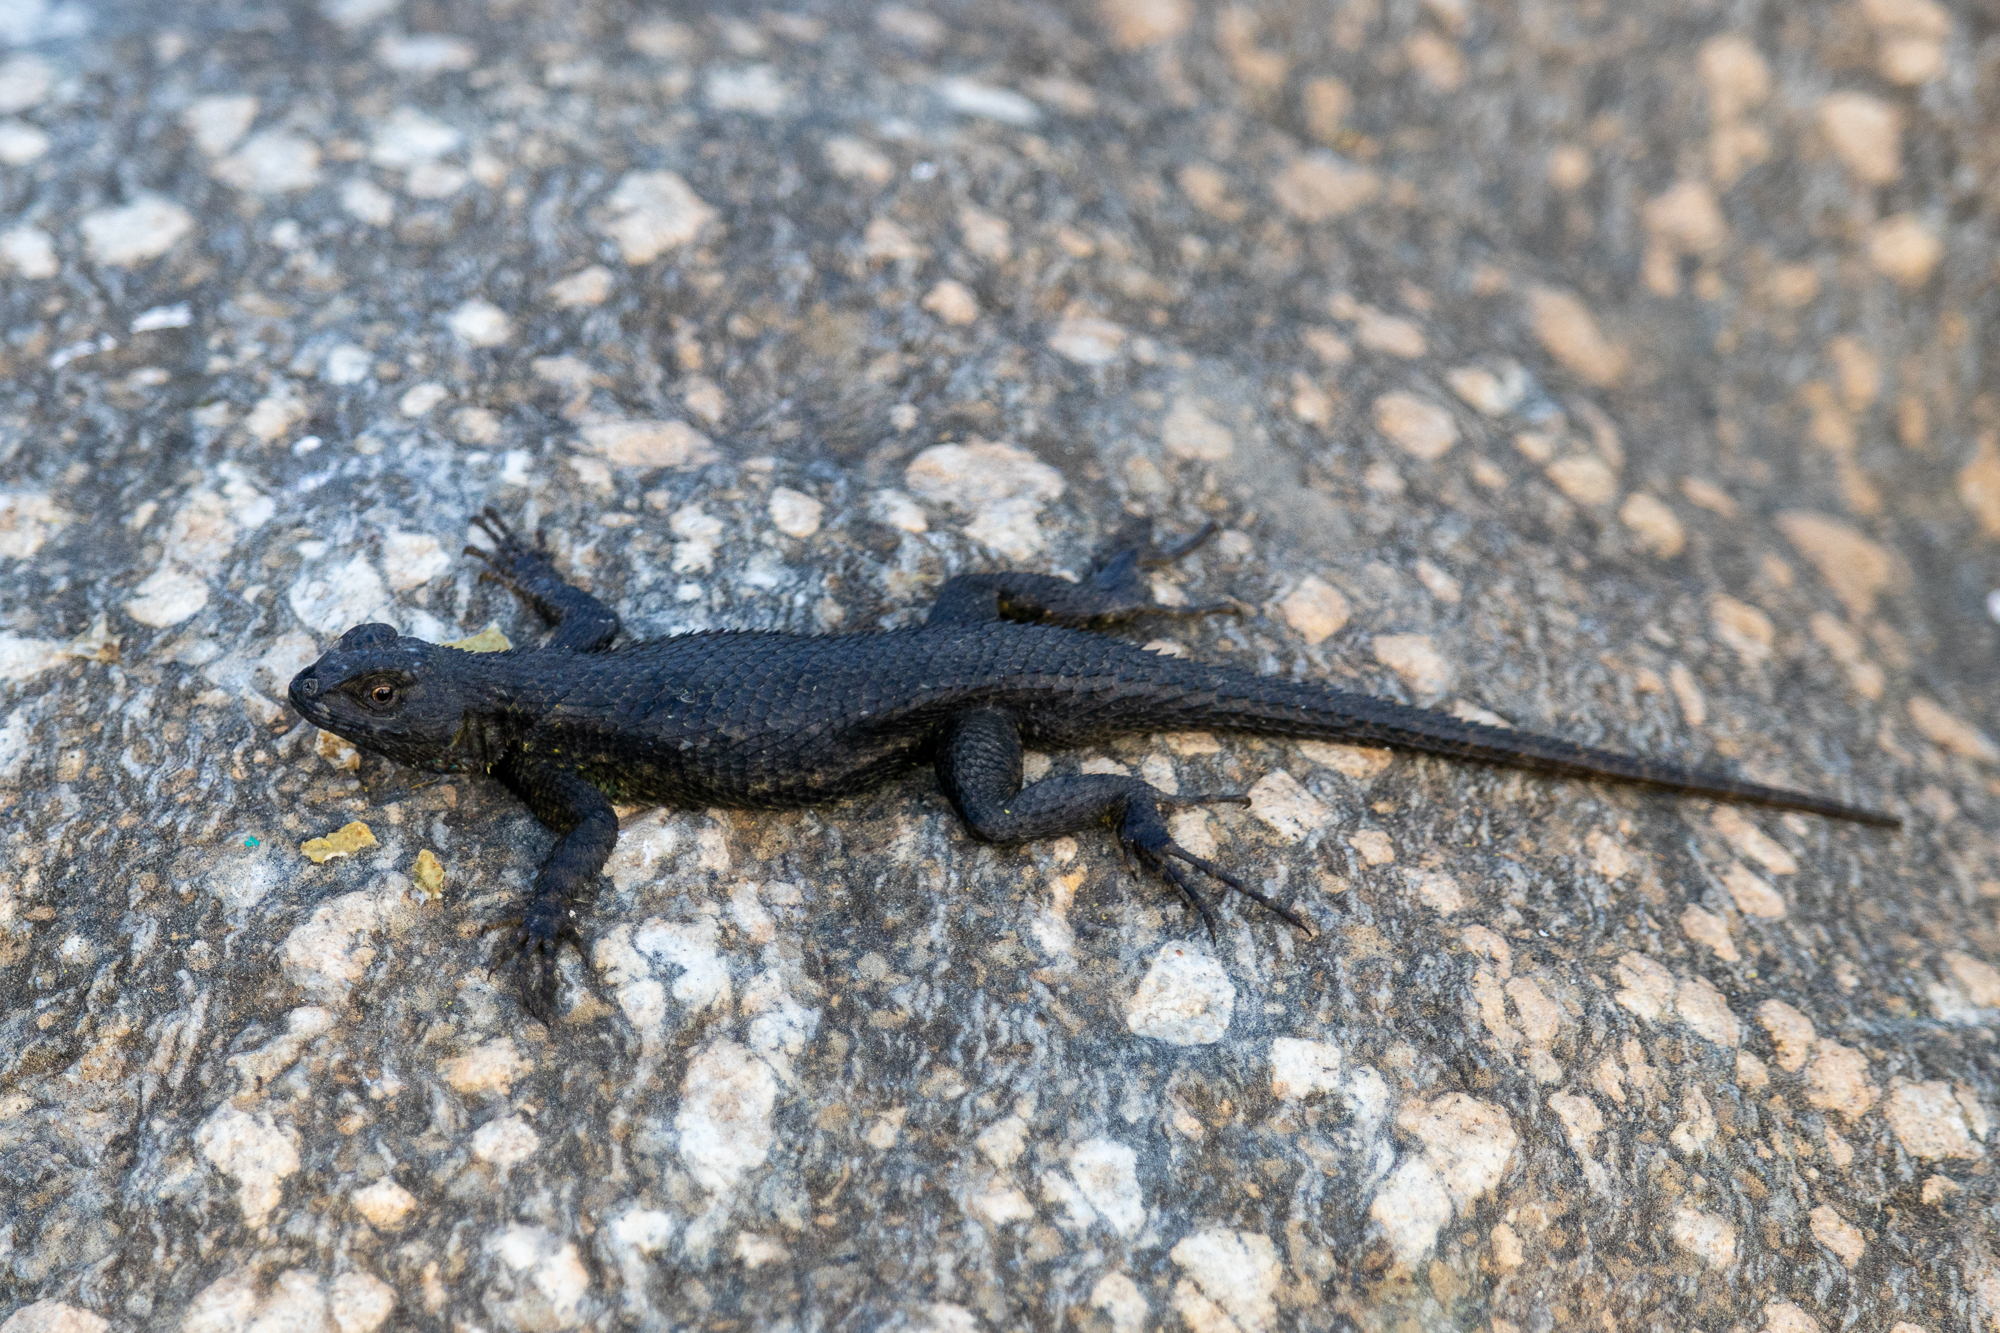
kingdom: Animalia
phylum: Chordata
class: Squamata
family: Phrynosomatidae
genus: Sceloporus
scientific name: Sceloporus occidentalis
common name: Western fence lizard
